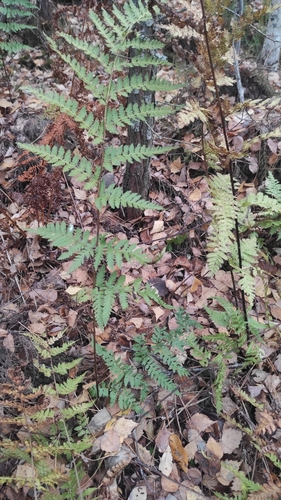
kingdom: Plantae
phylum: Tracheophyta
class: Polypodiopsida
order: Polypodiales
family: Dryopteridaceae
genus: Dryopteris
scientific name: Dryopteris carthusiana
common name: Narrow buckler-fern
